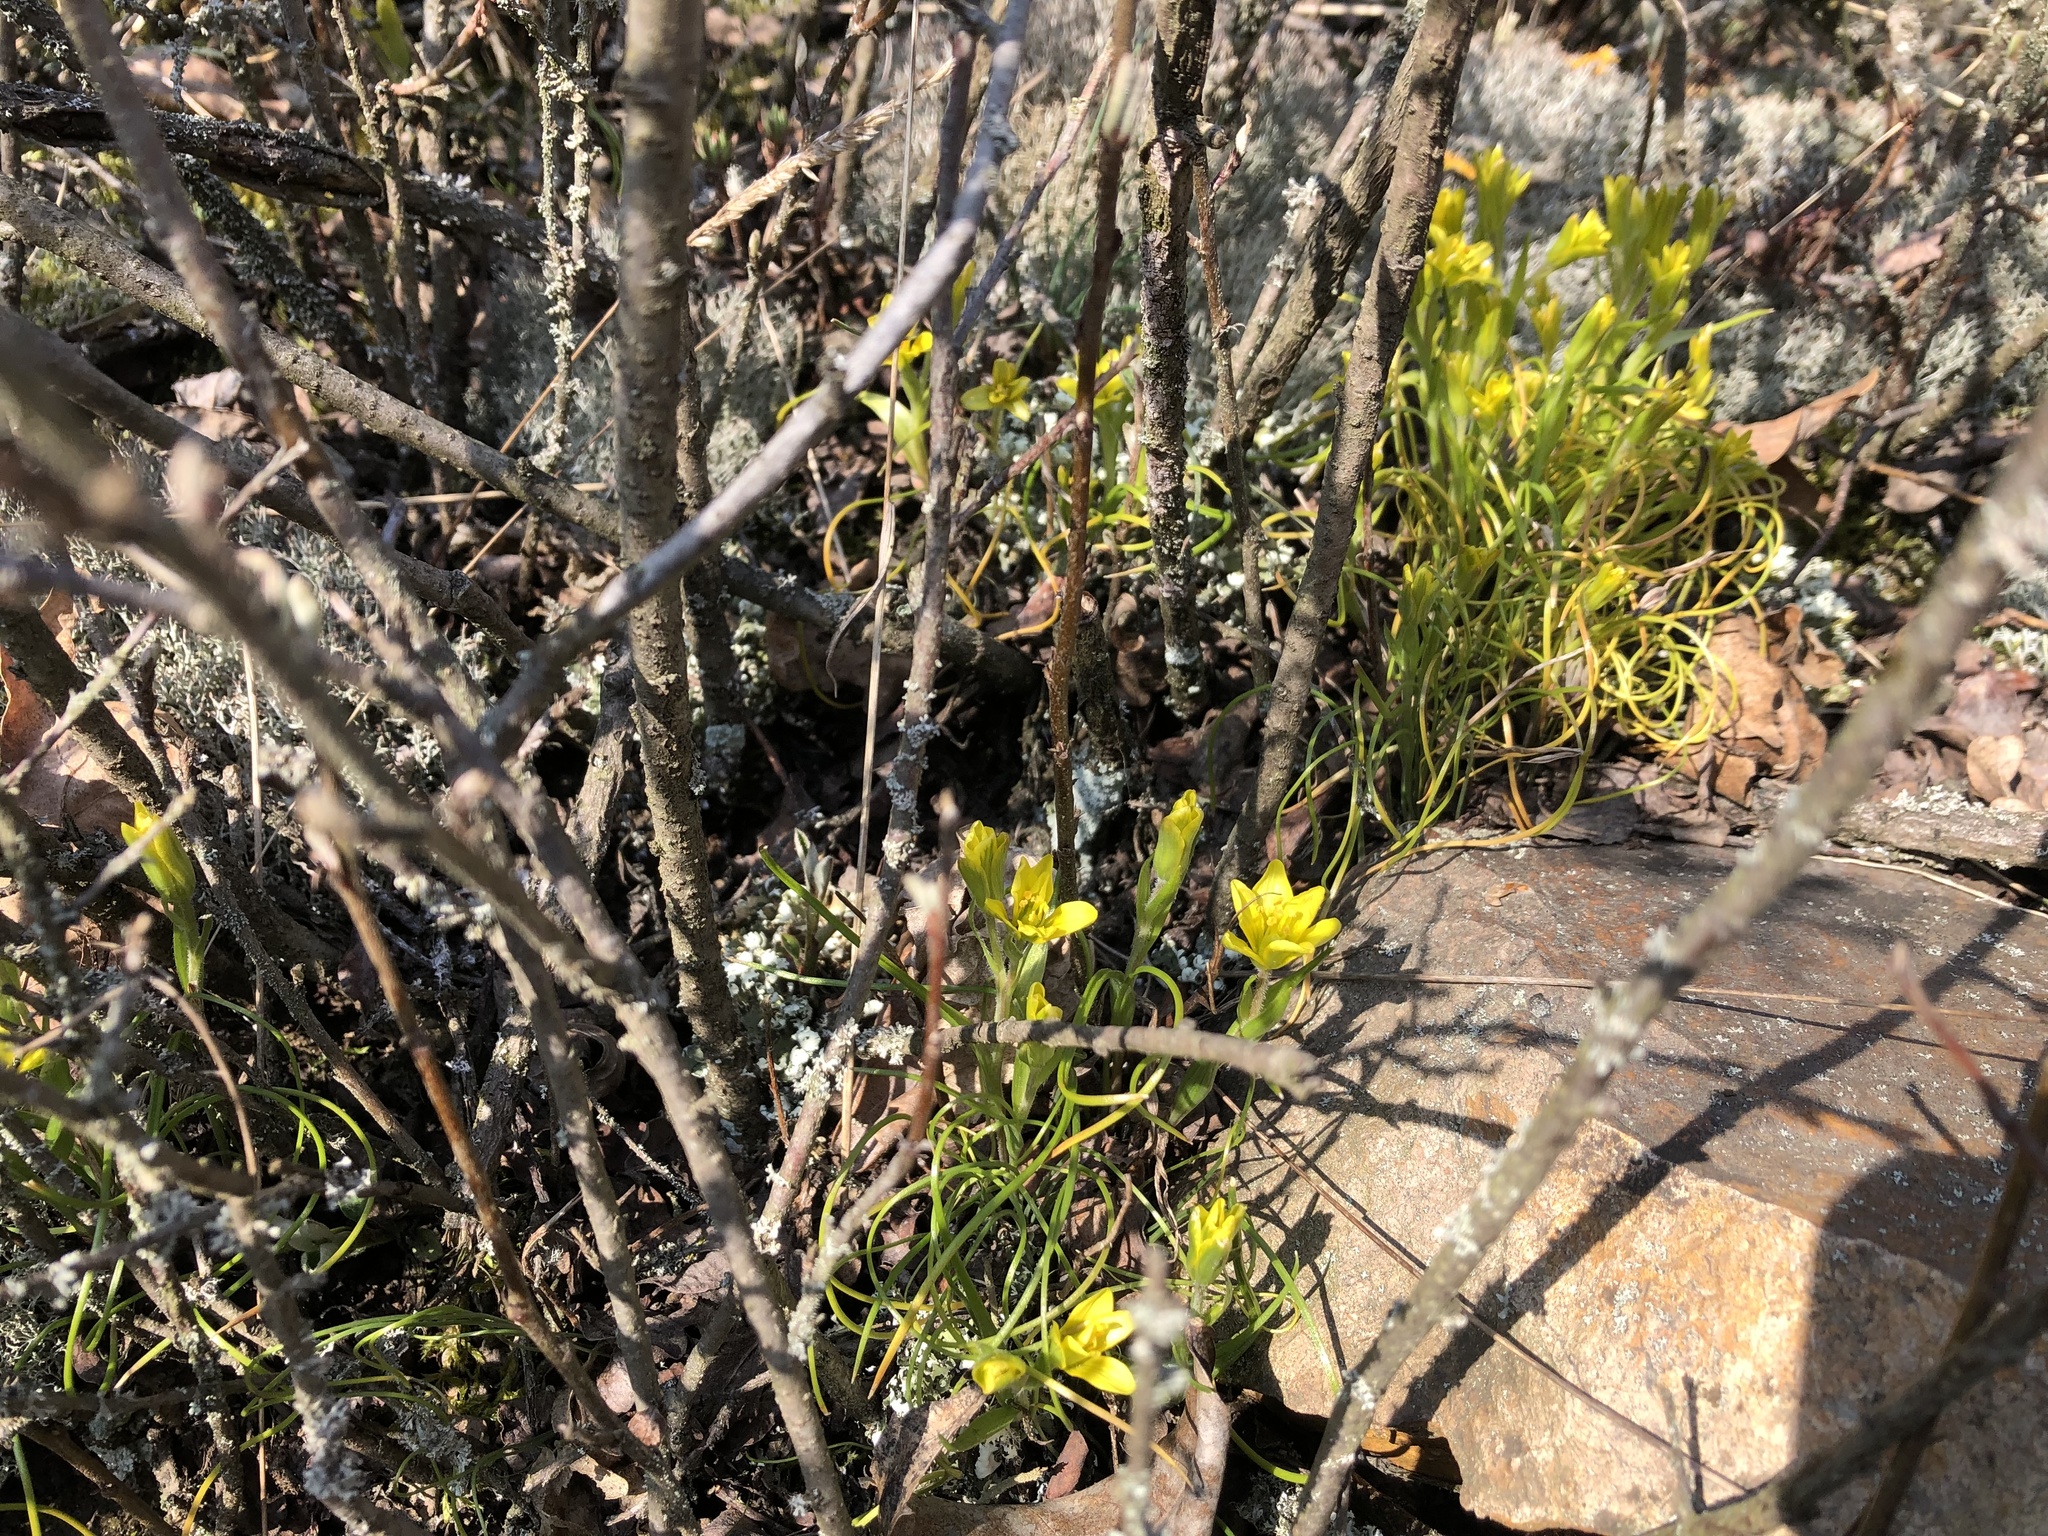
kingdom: Plantae
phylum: Tracheophyta
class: Liliopsida
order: Liliales
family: Liliaceae
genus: Gagea
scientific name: Gagea bohemica
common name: Early star-of-bethlehem
